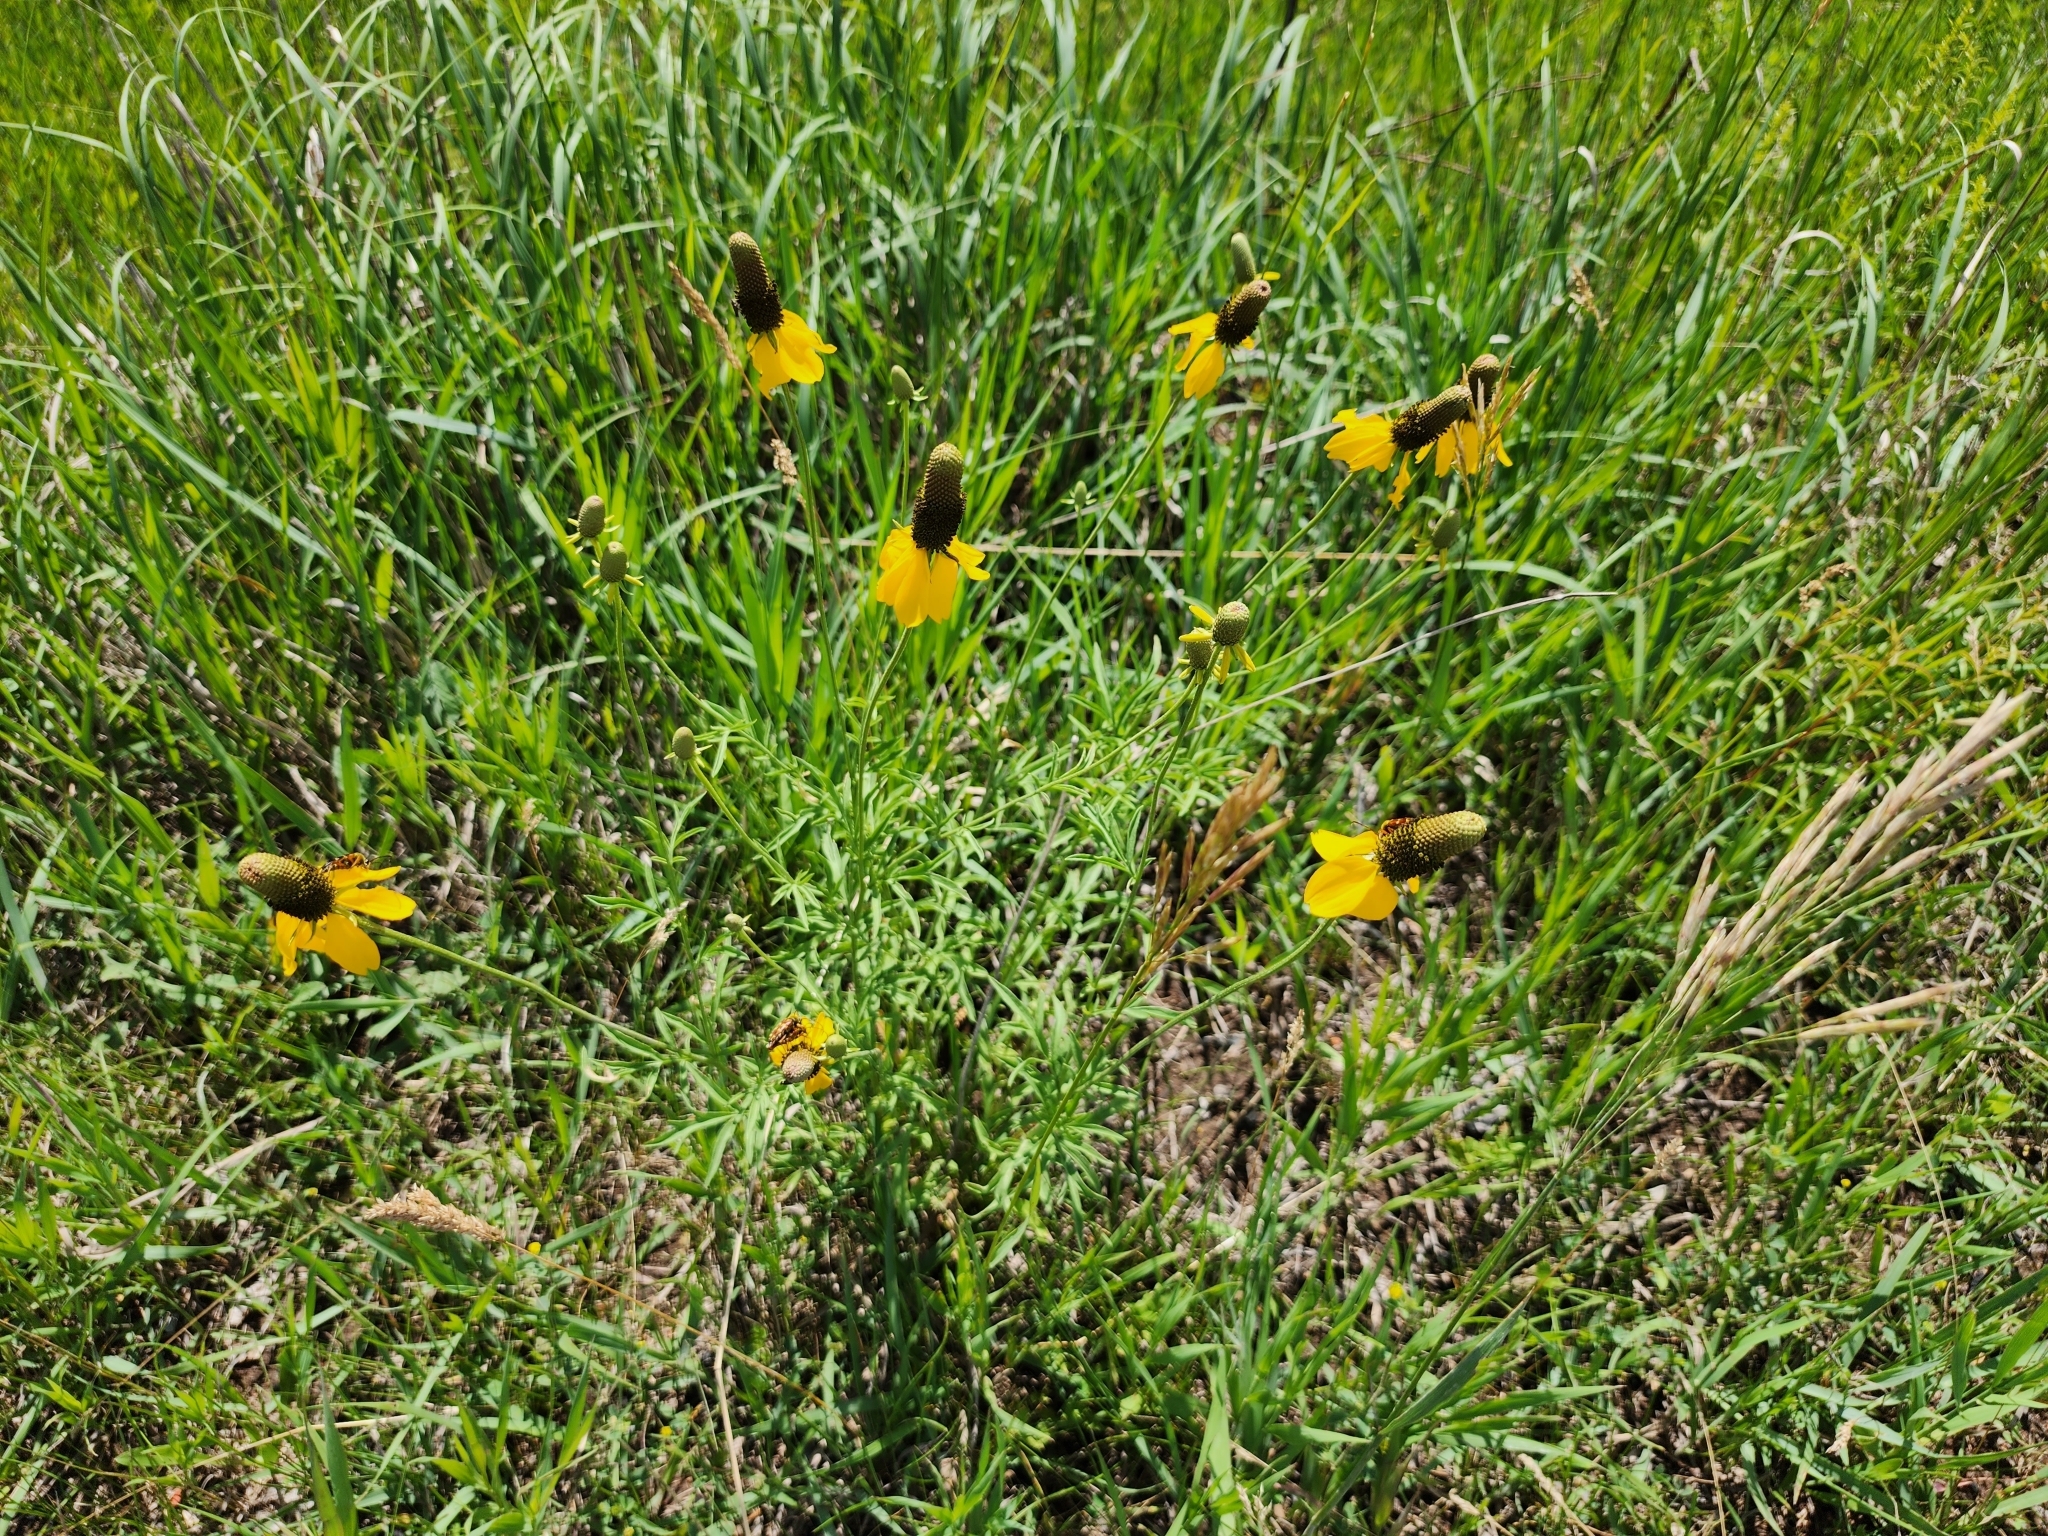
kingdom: Plantae
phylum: Tracheophyta
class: Magnoliopsida
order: Asterales
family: Asteraceae
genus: Ratibida
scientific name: Ratibida columnifera
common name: Prairie coneflower
